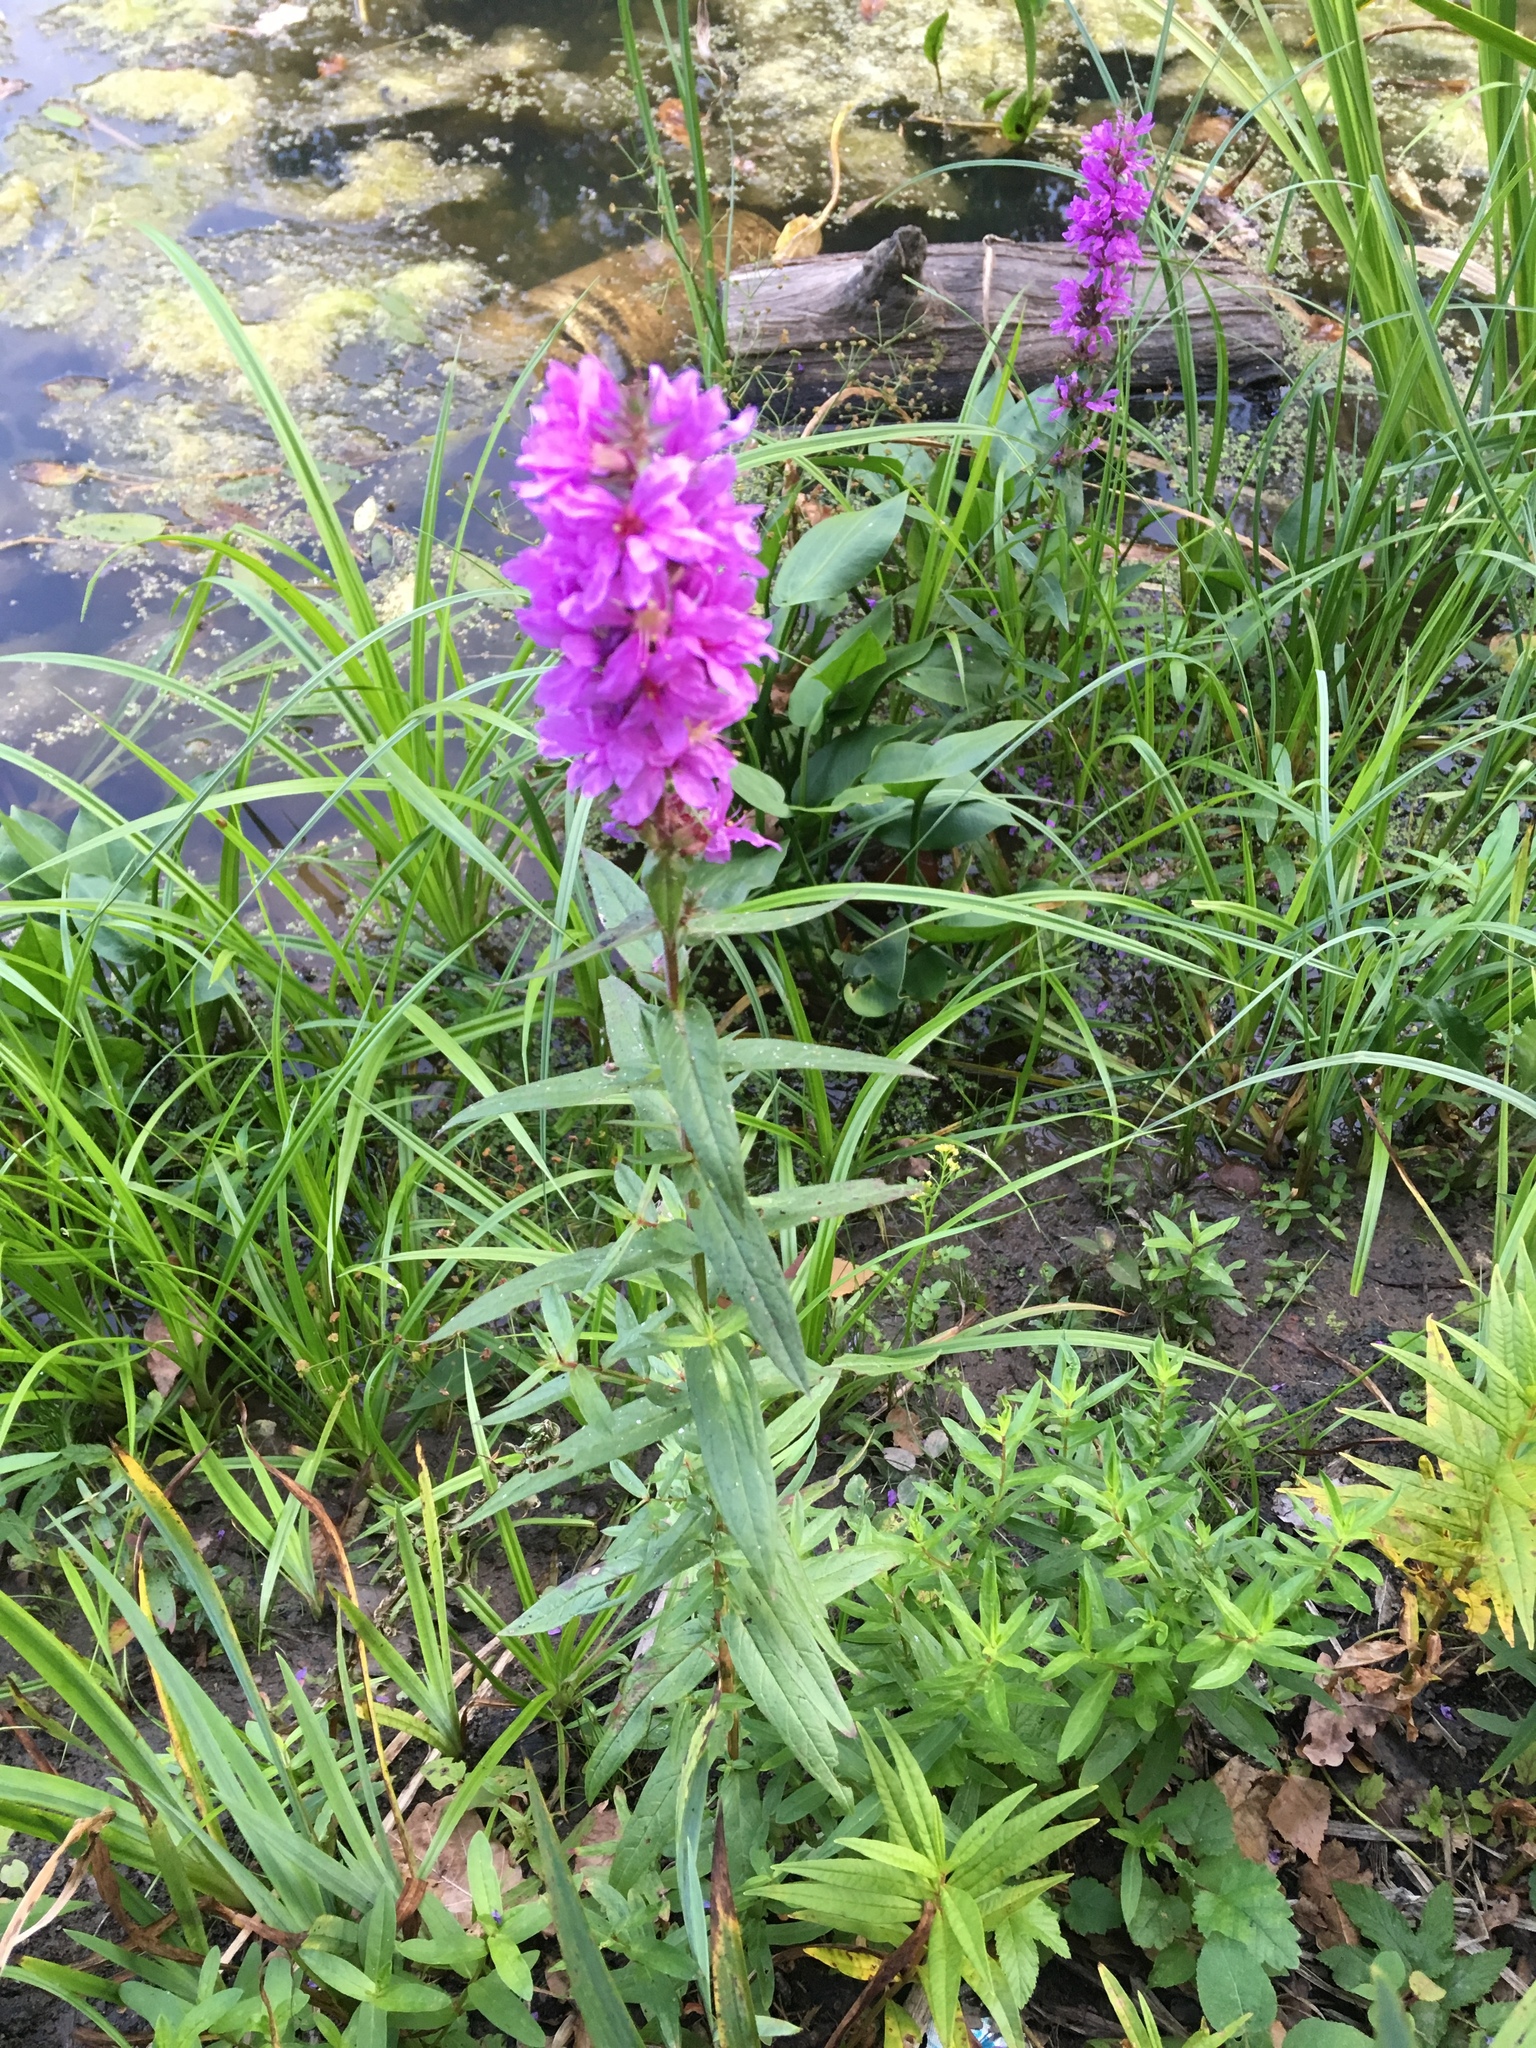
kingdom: Plantae
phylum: Tracheophyta
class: Magnoliopsida
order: Myrtales
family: Lythraceae
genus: Lythrum
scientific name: Lythrum salicaria
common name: Purple loosestrife
